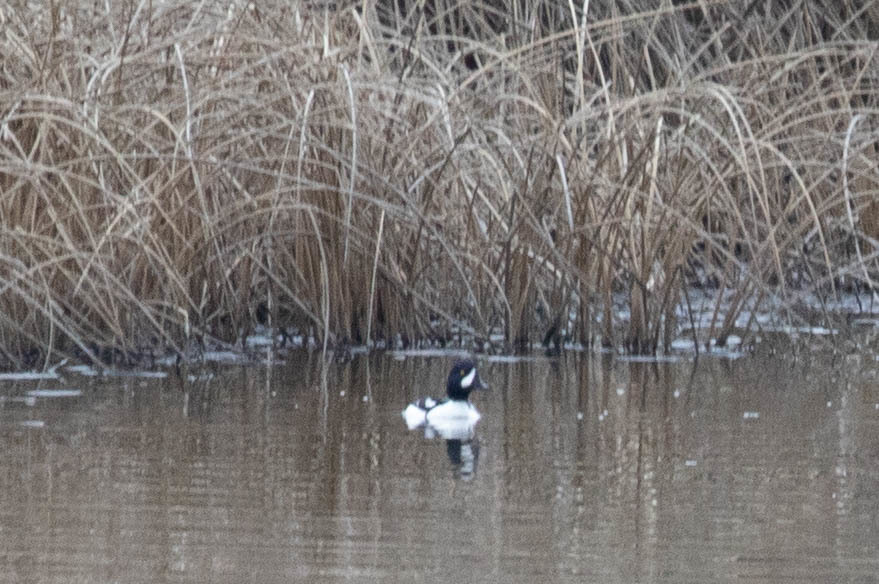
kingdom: Animalia
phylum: Chordata
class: Aves
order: Anseriformes
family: Anatidae
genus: Bucephala
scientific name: Bucephala islandica
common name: Barrow's goldeneye
